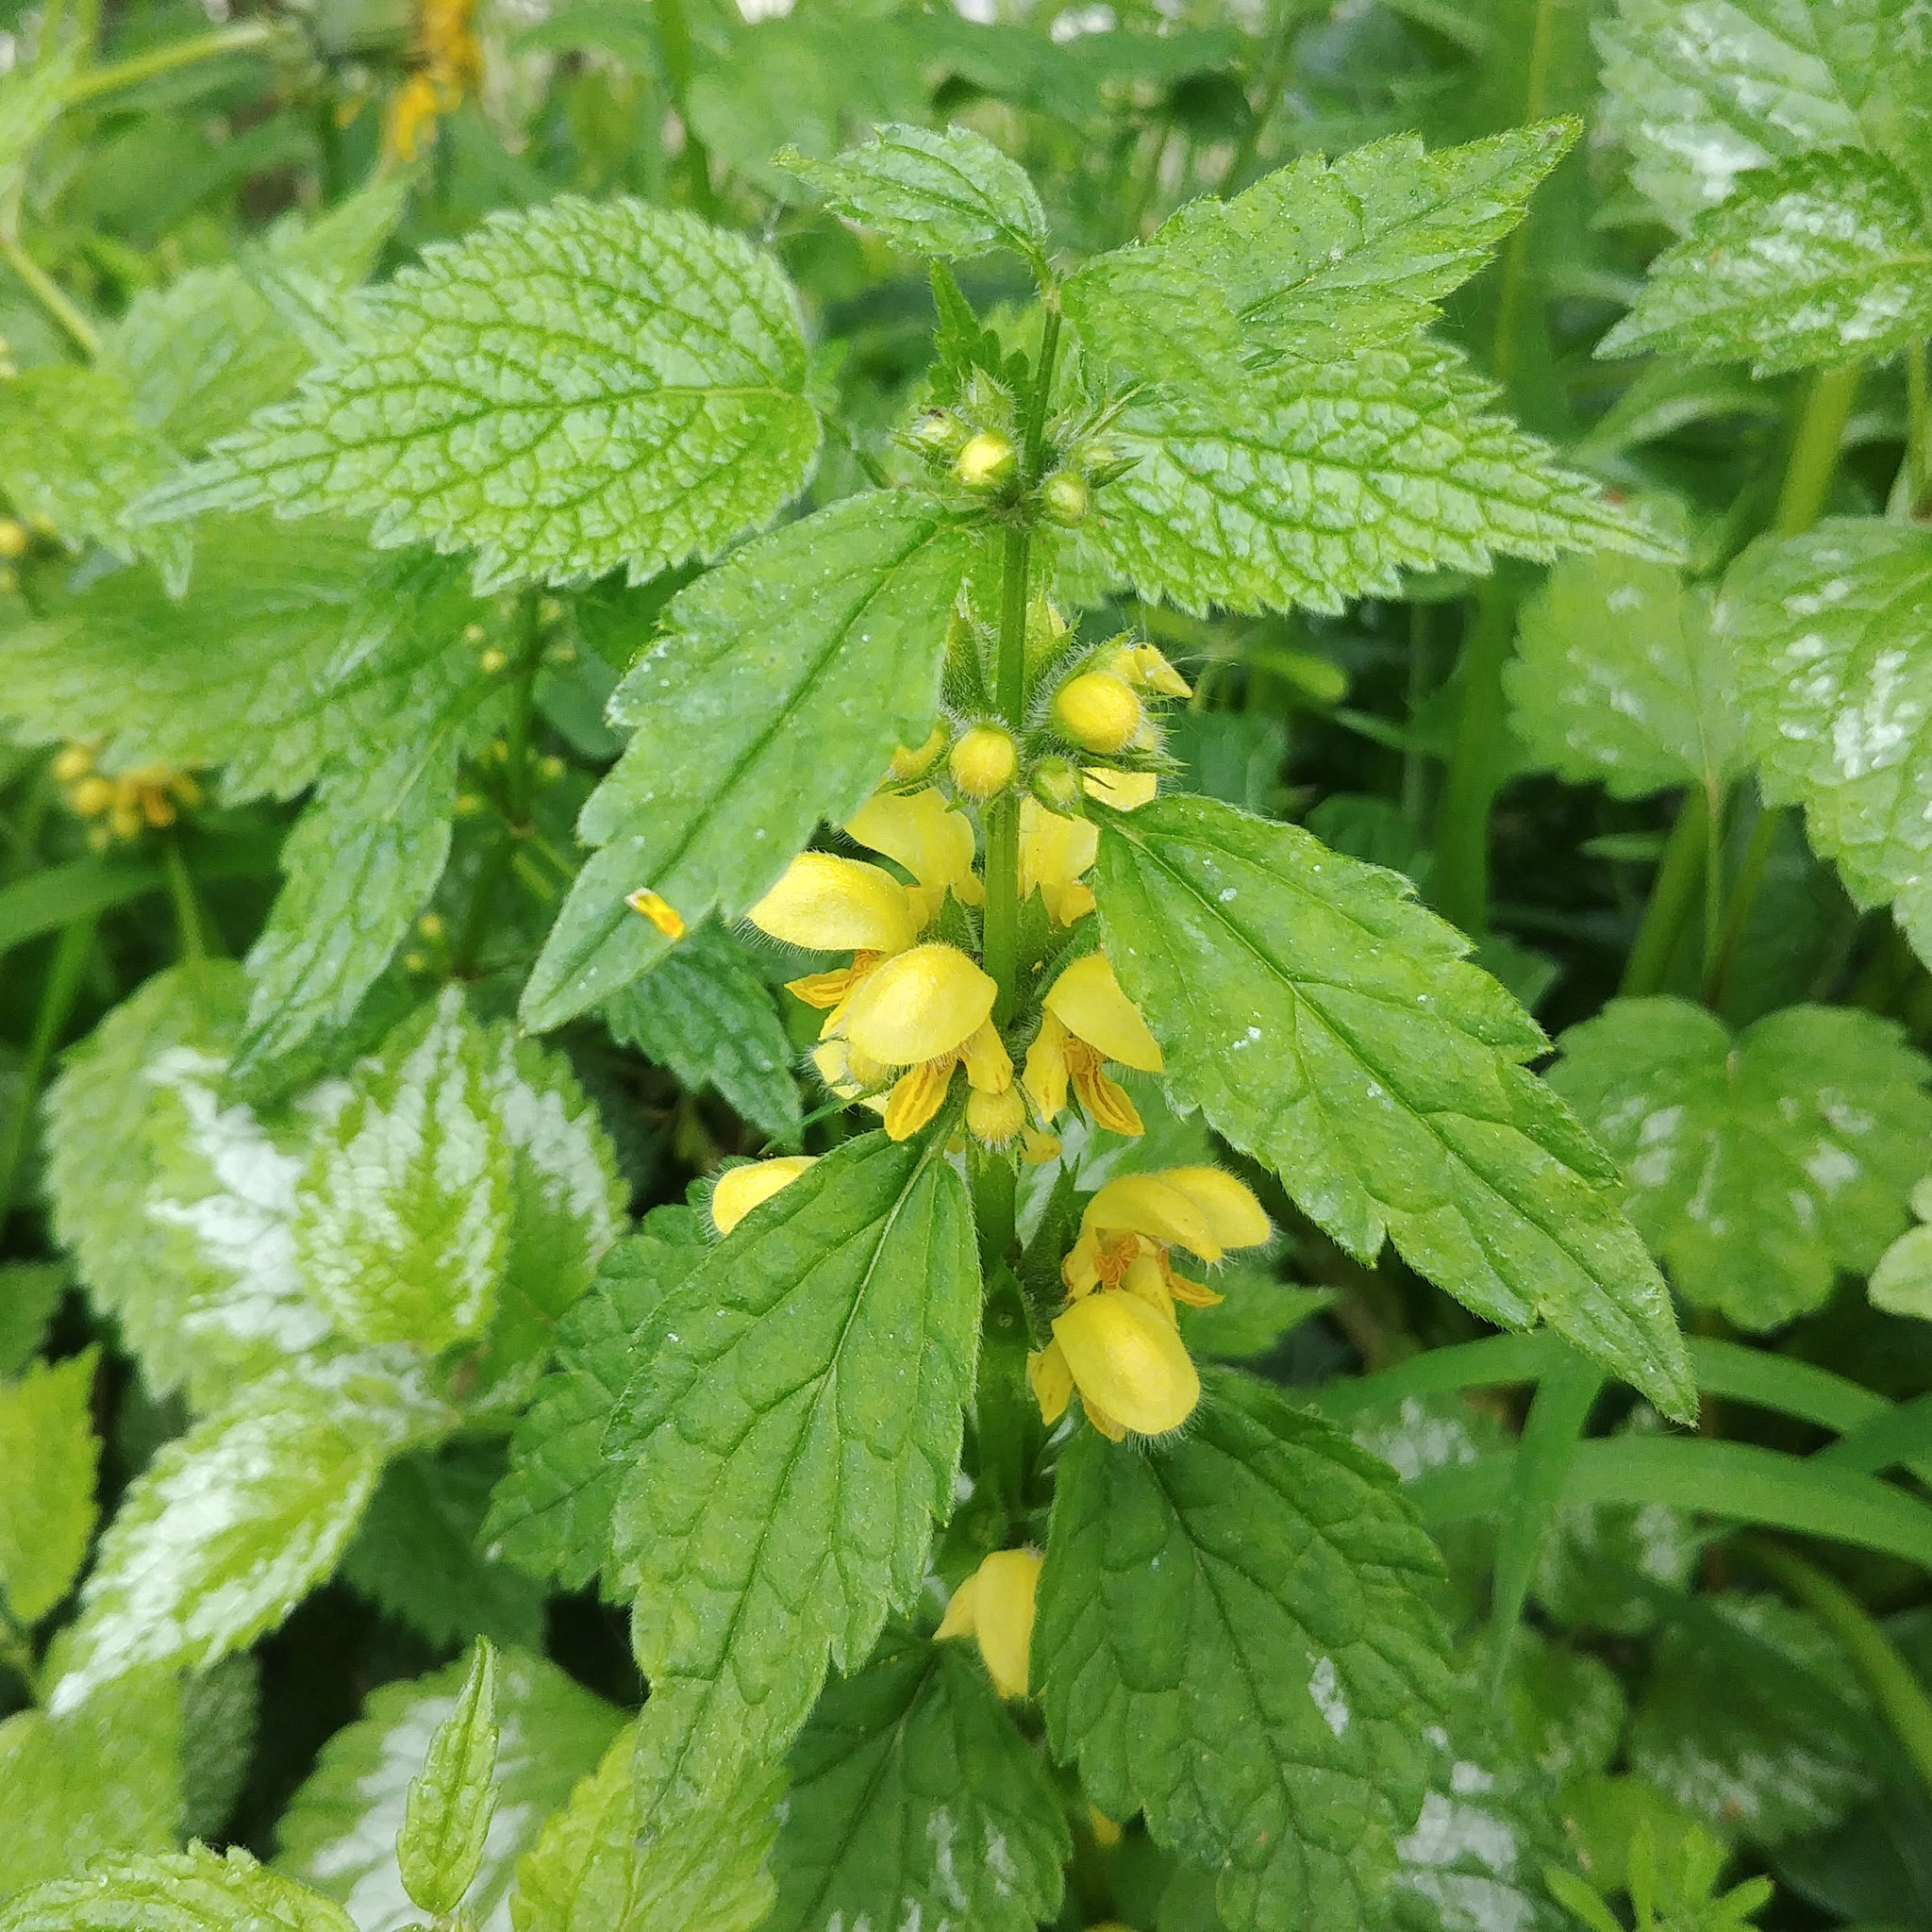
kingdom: Plantae
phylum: Tracheophyta
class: Magnoliopsida
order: Lamiales
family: Lamiaceae
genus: Lamium
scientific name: Lamium galeobdolon
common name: Yellow archangel
